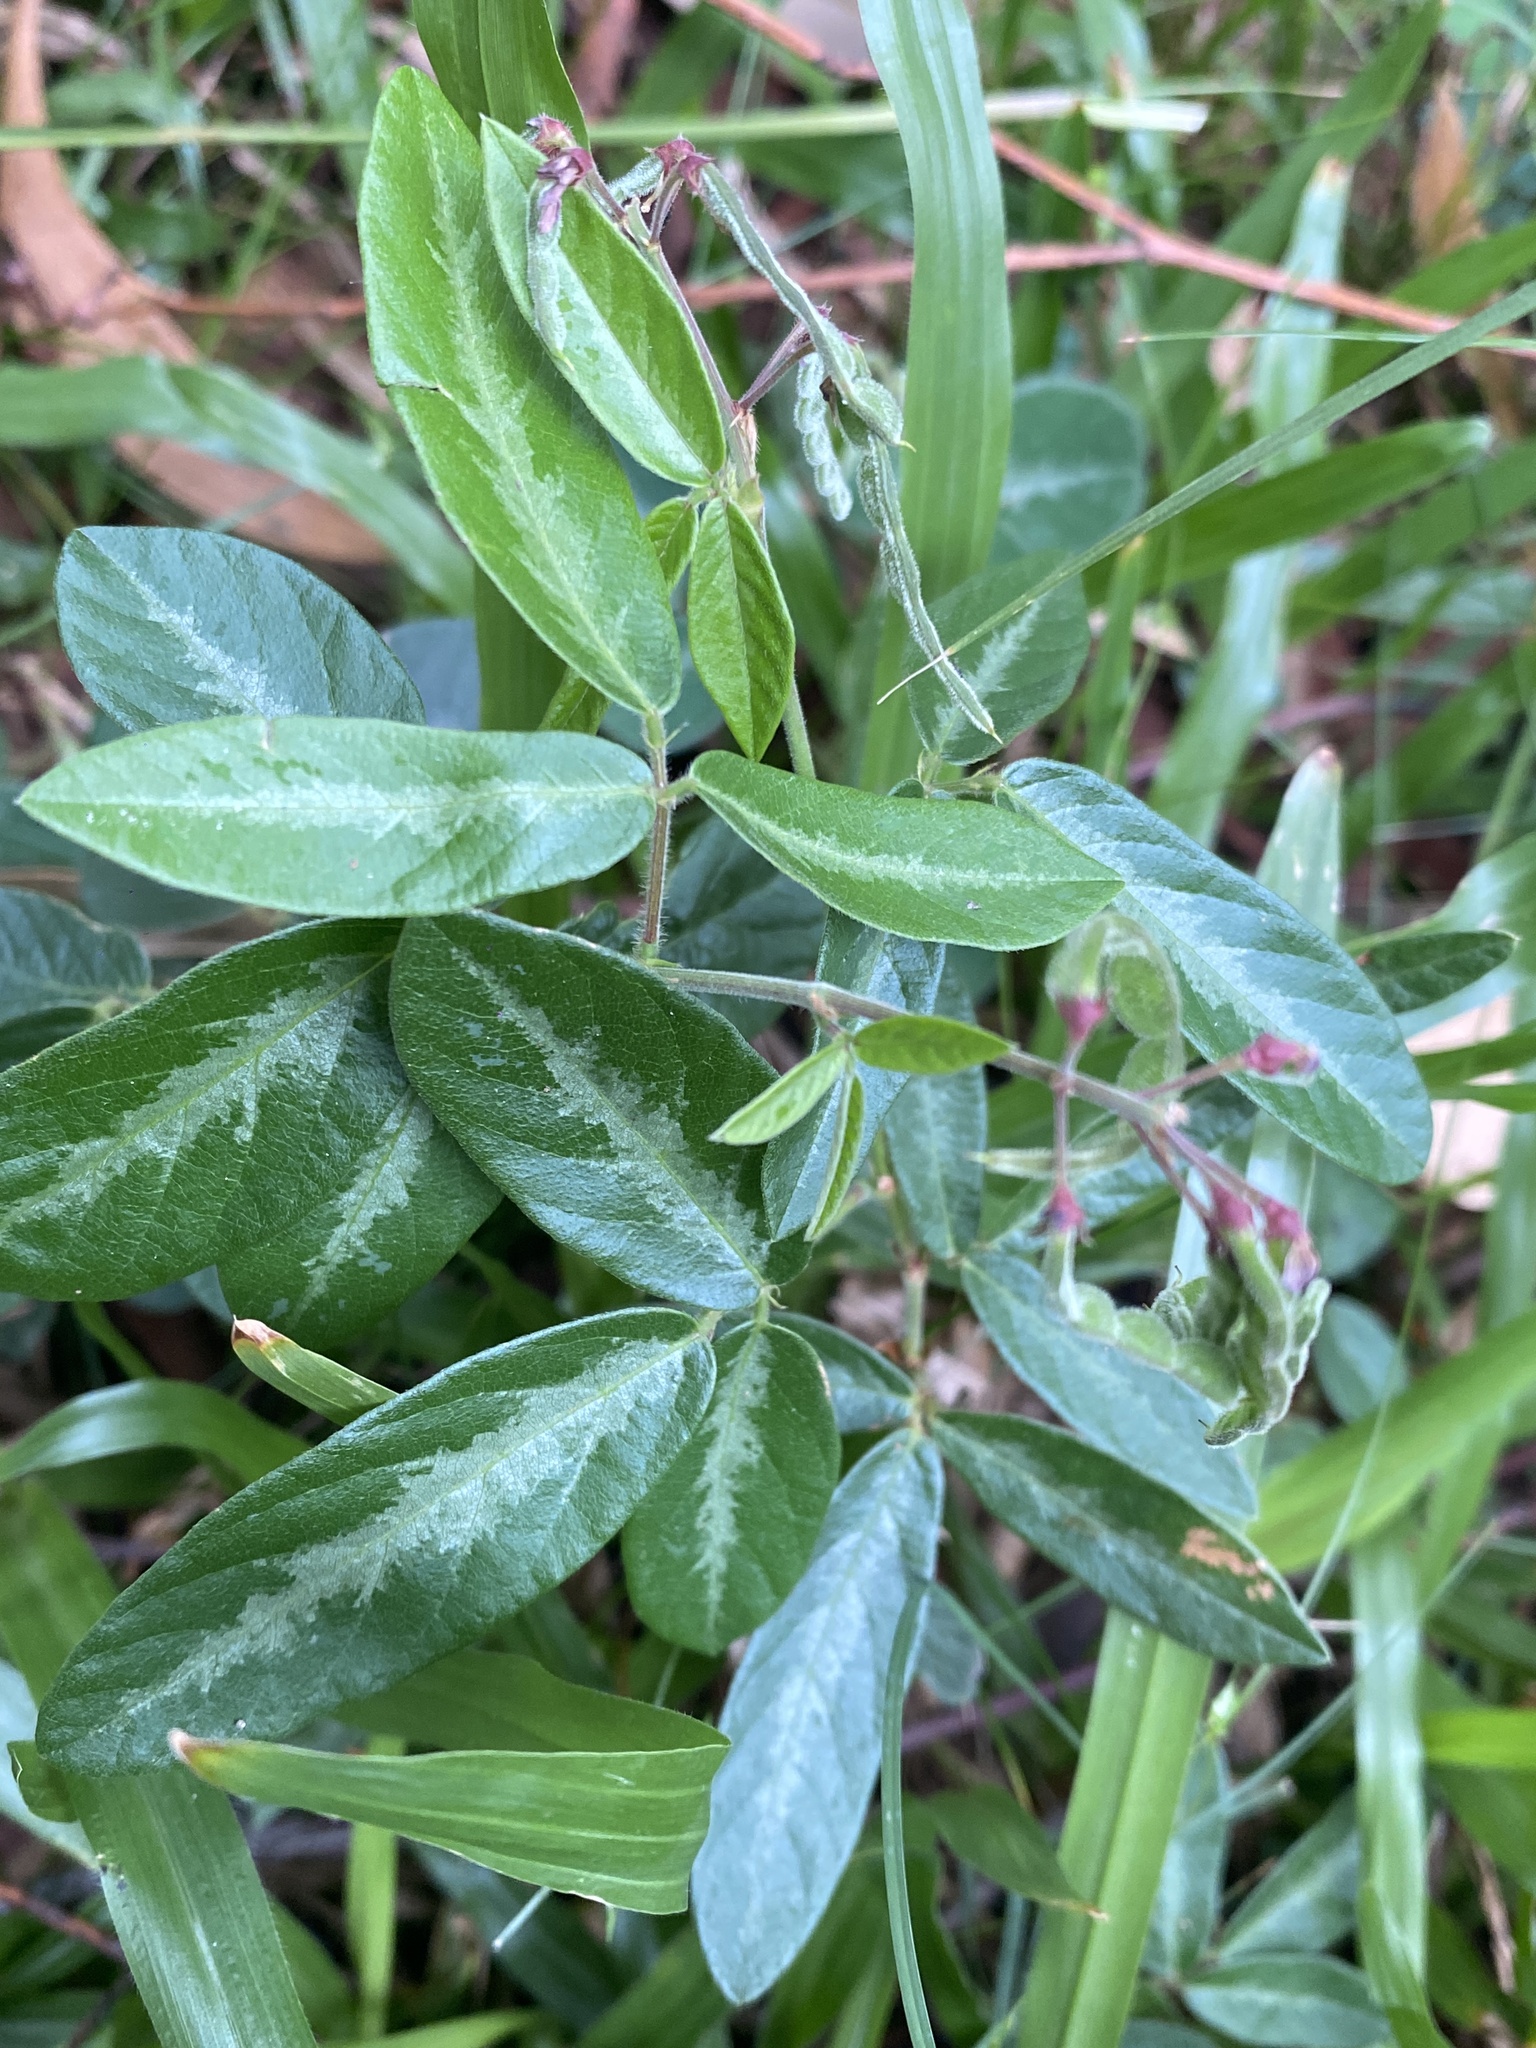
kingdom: Plantae
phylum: Tracheophyta
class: Magnoliopsida
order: Fabales
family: Fabaceae
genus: Desmodium
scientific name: Desmodium incanum
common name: Tickclover
